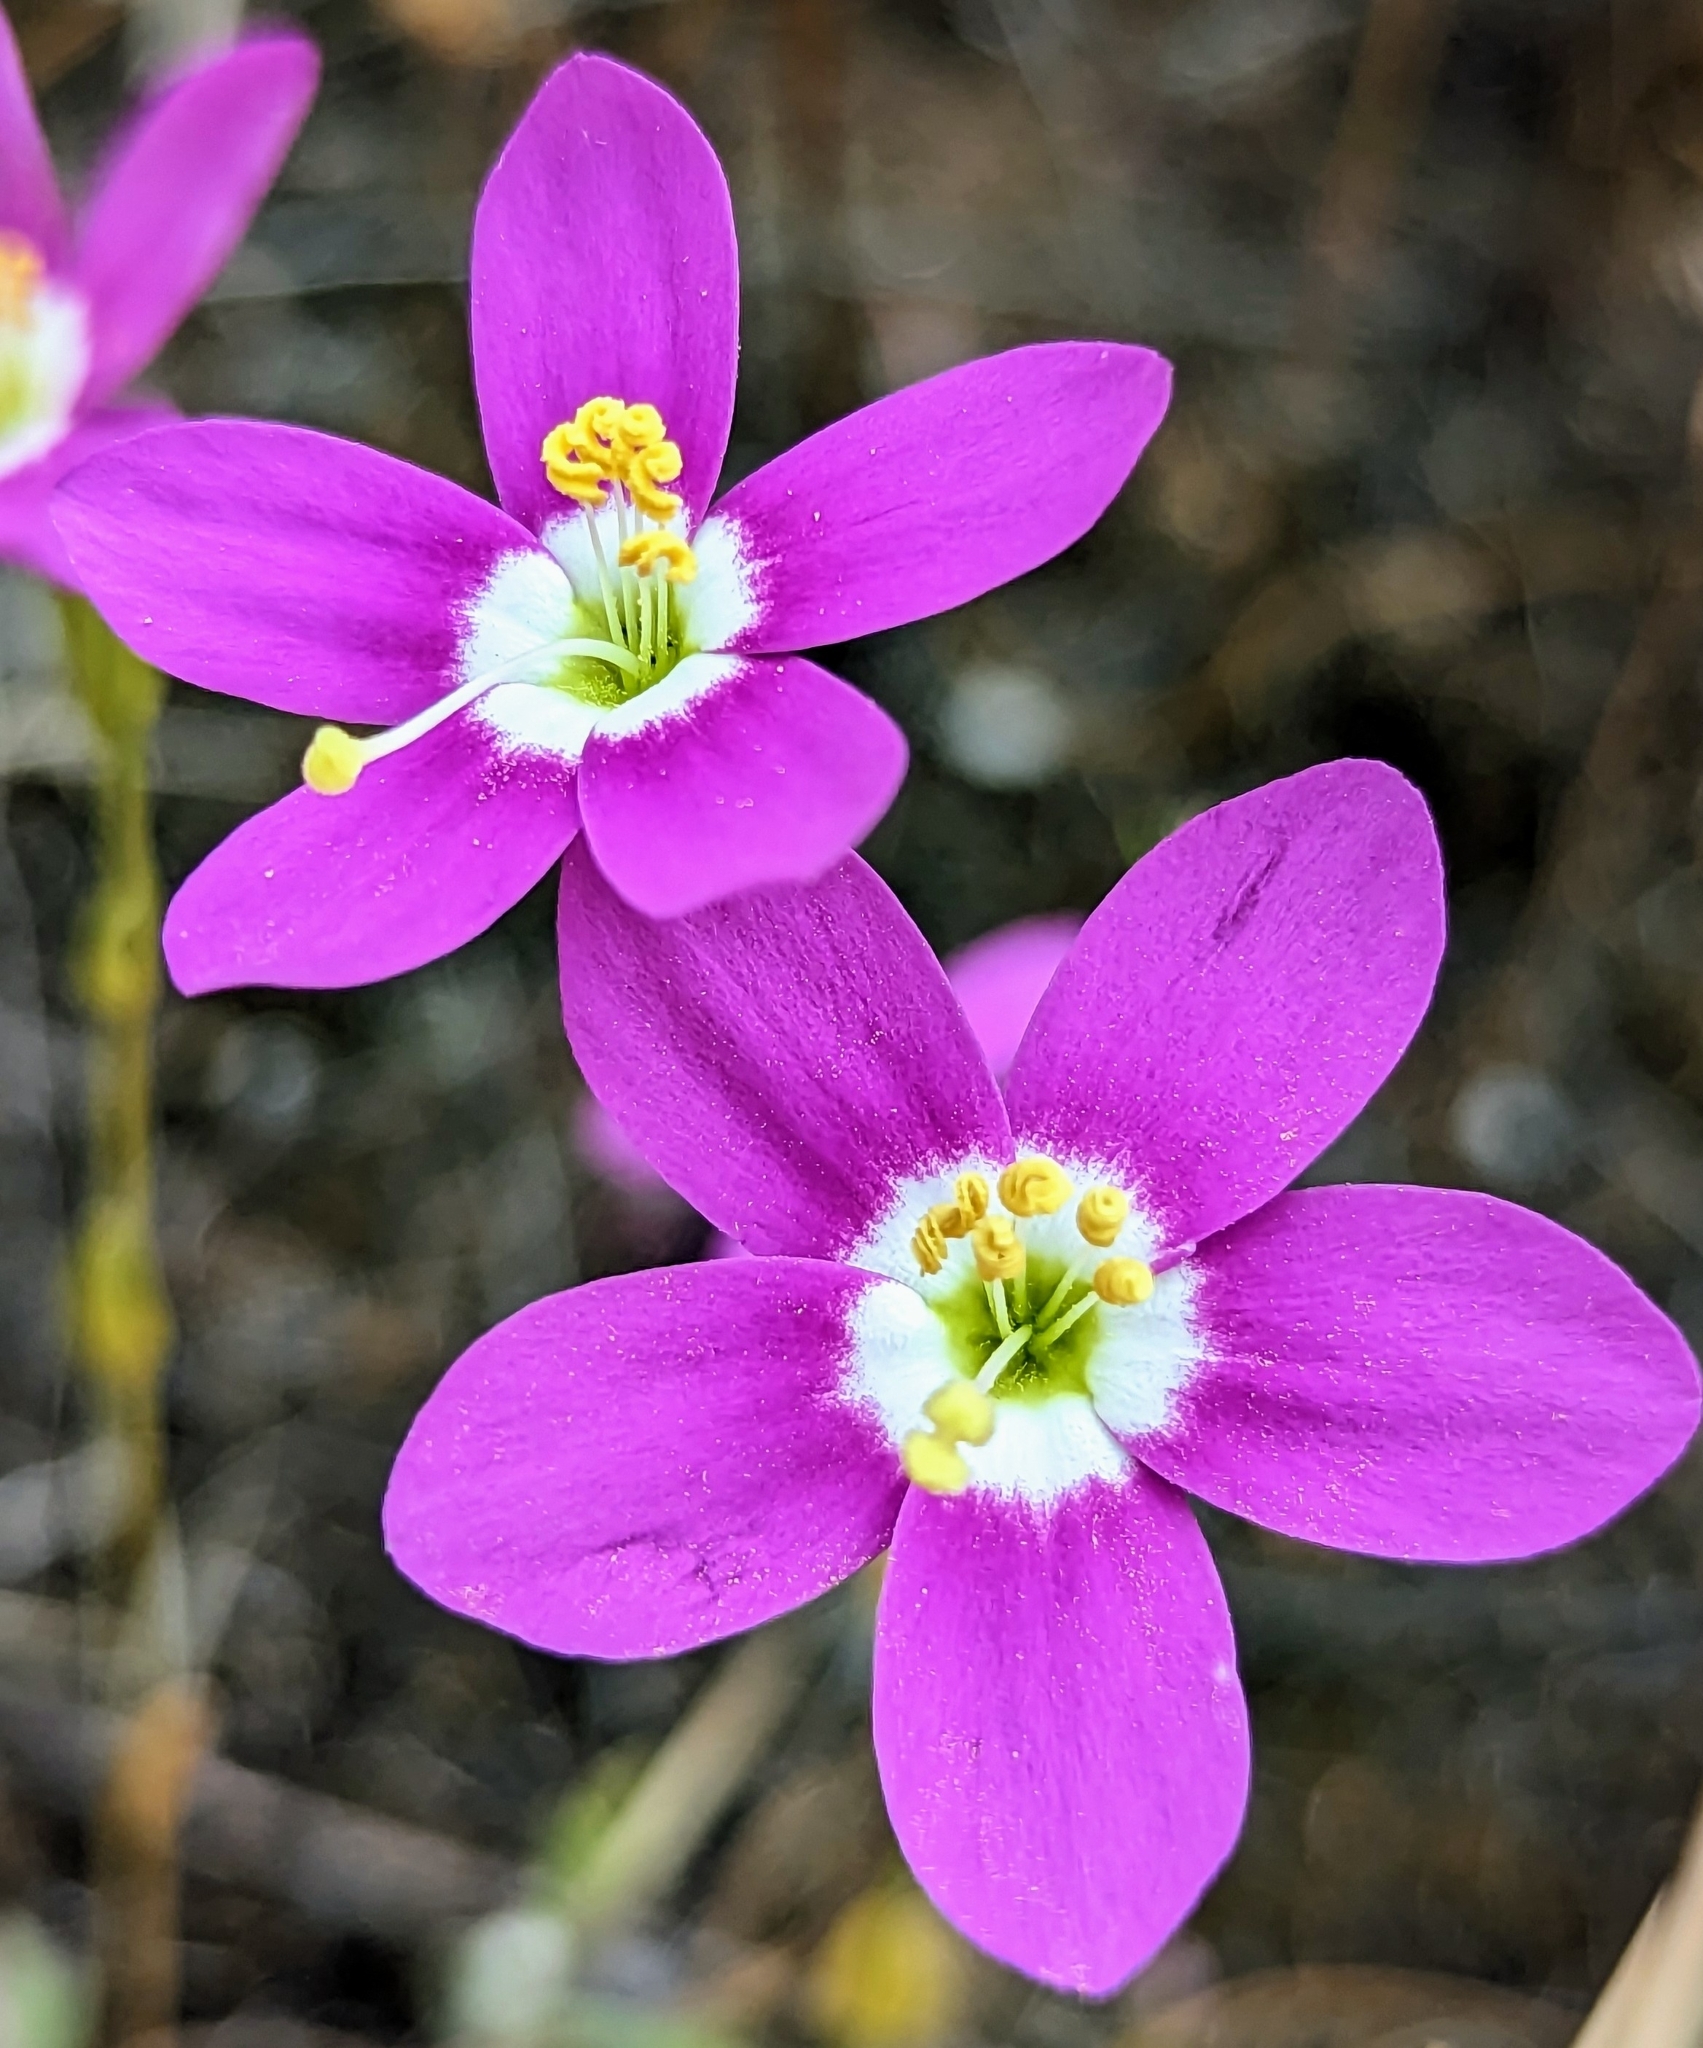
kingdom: Plantae
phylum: Tracheophyta
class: Magnoliopsida
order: Gentianales
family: Gentianaceae
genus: Zeltnera
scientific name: Zeltnera venusta
